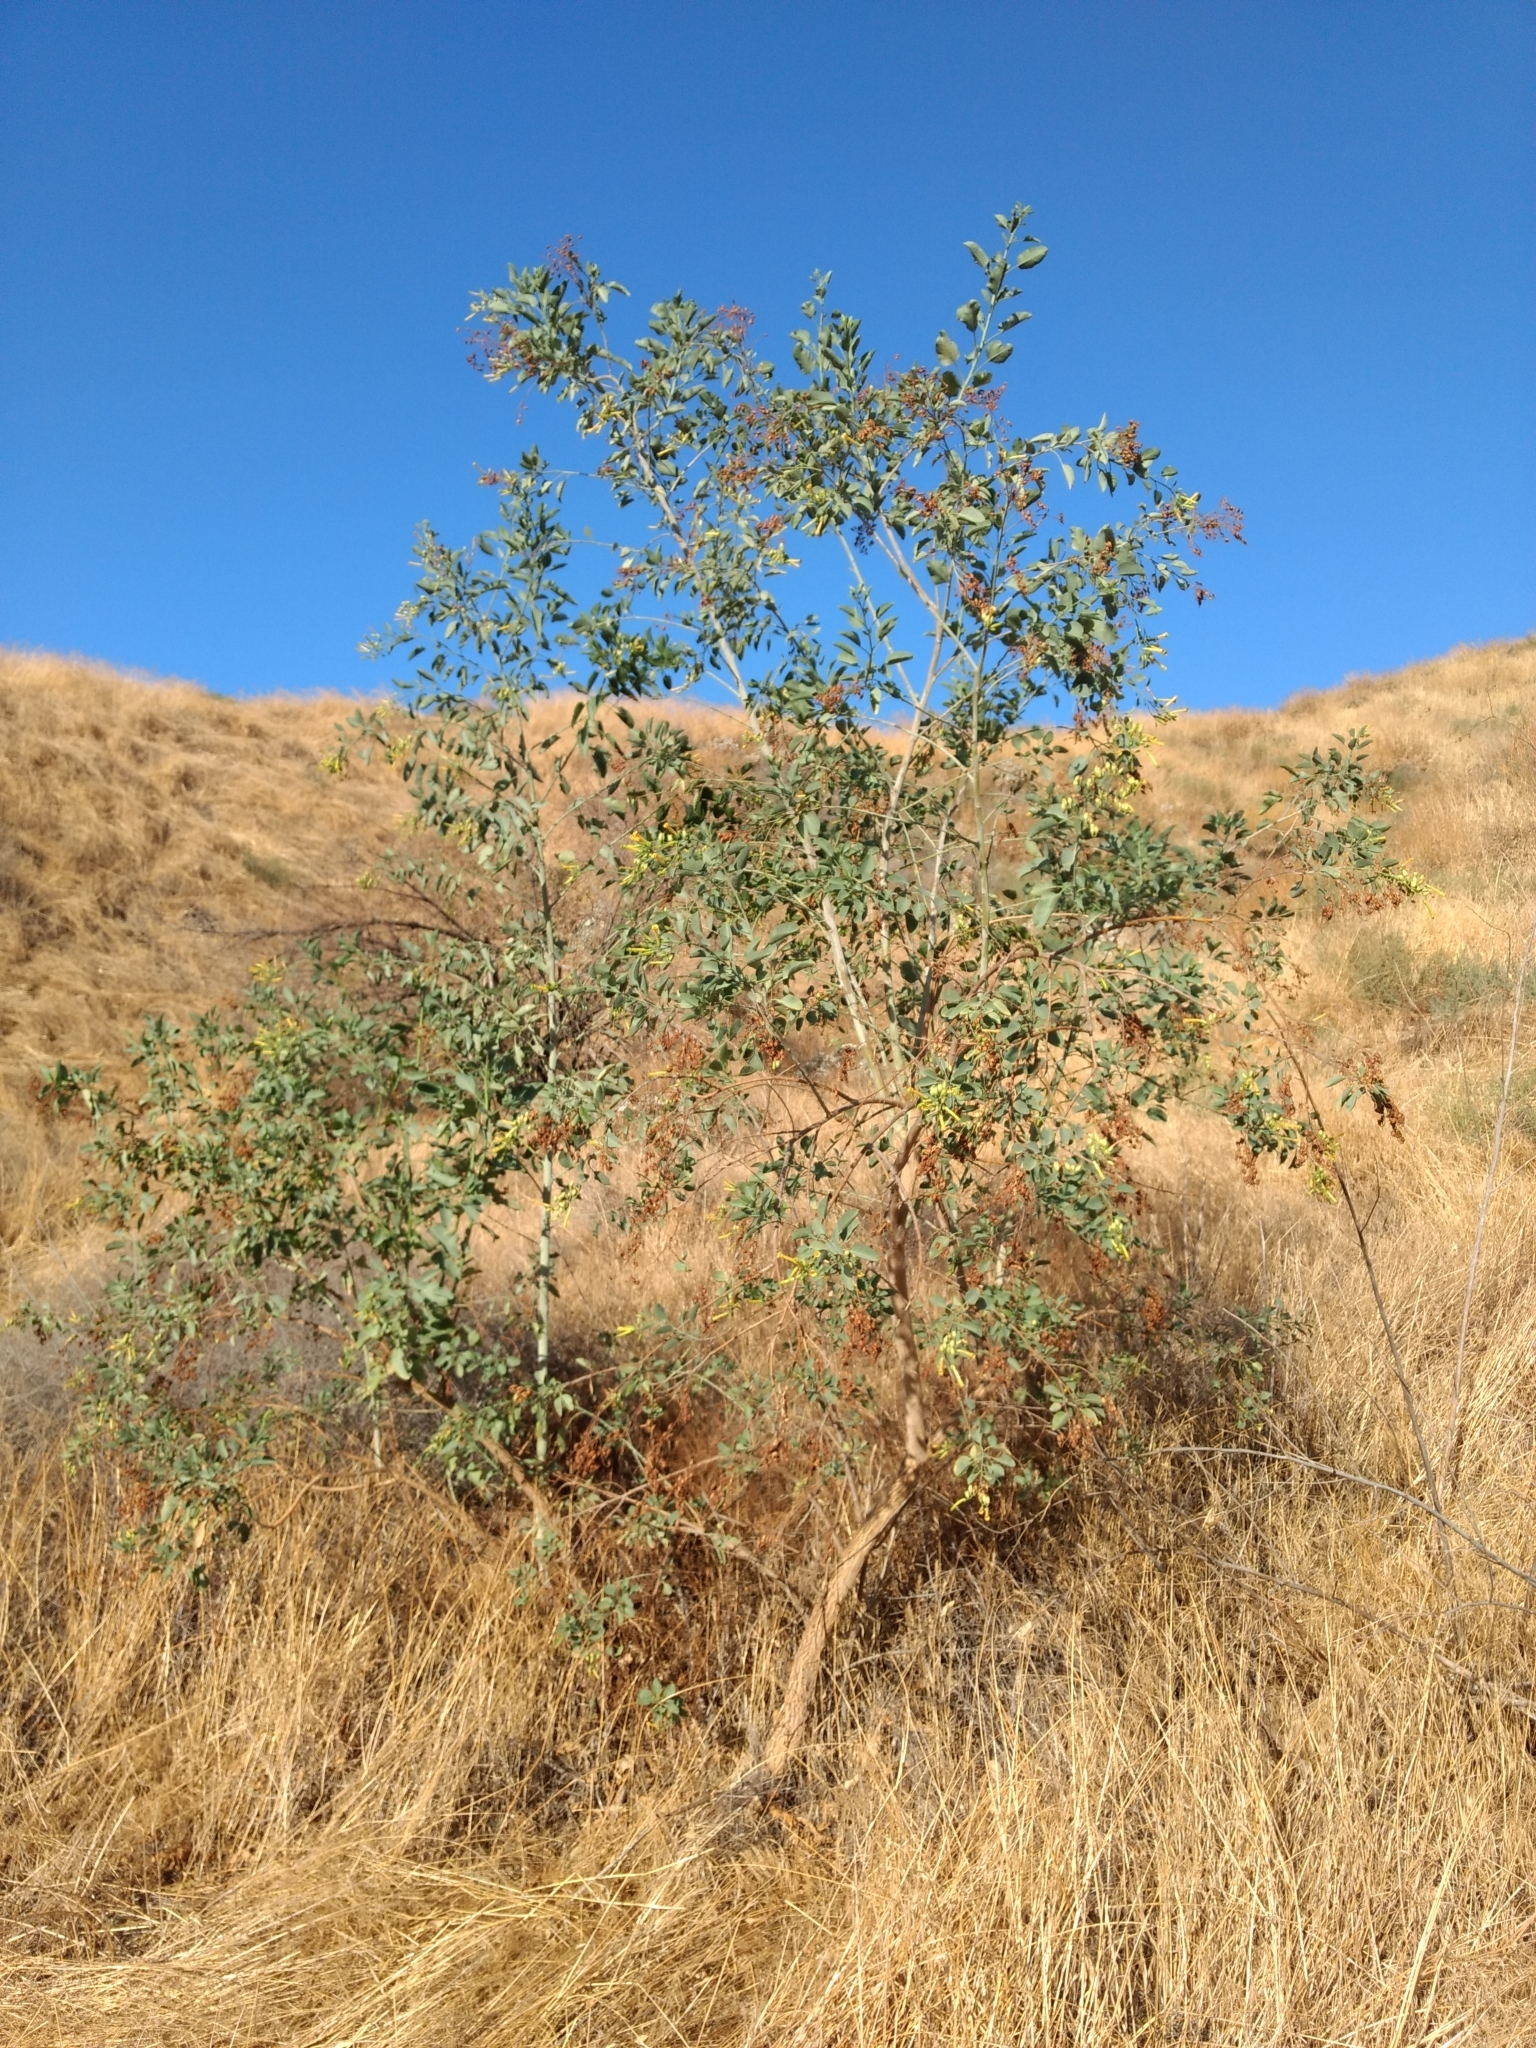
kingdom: Plantae
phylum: Tracheophyta
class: Magnoliopsida
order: Solanales
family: Solanaceae
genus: Nicotiana
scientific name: Nicotiana glauca
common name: Tree tobacco
